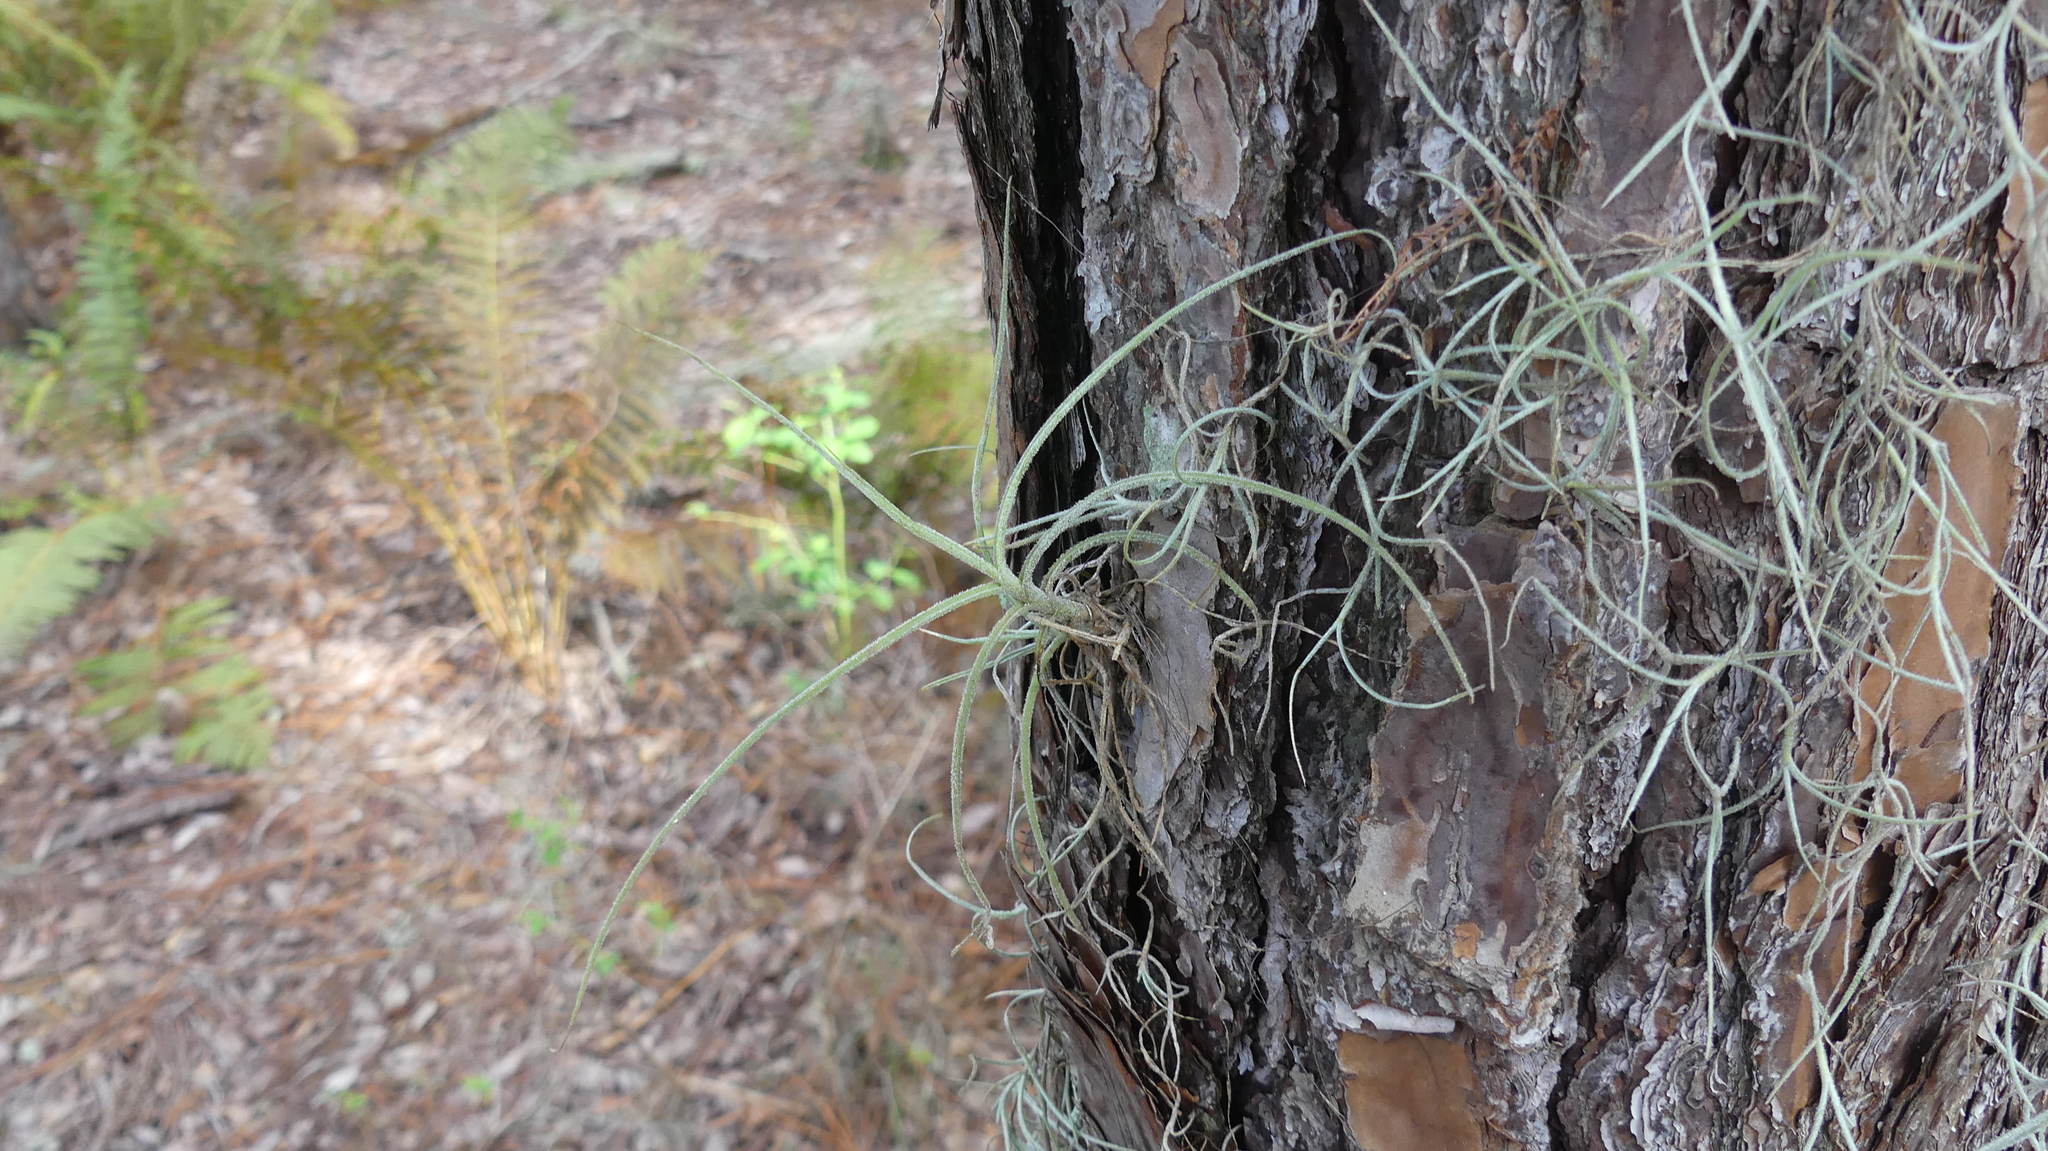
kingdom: Plantae
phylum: Tracheophyta
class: Liliopsida
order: Poales
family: Bromeliaceae
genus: Tillandsia
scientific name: Tillandsia recurvata
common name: Small ballmoss
